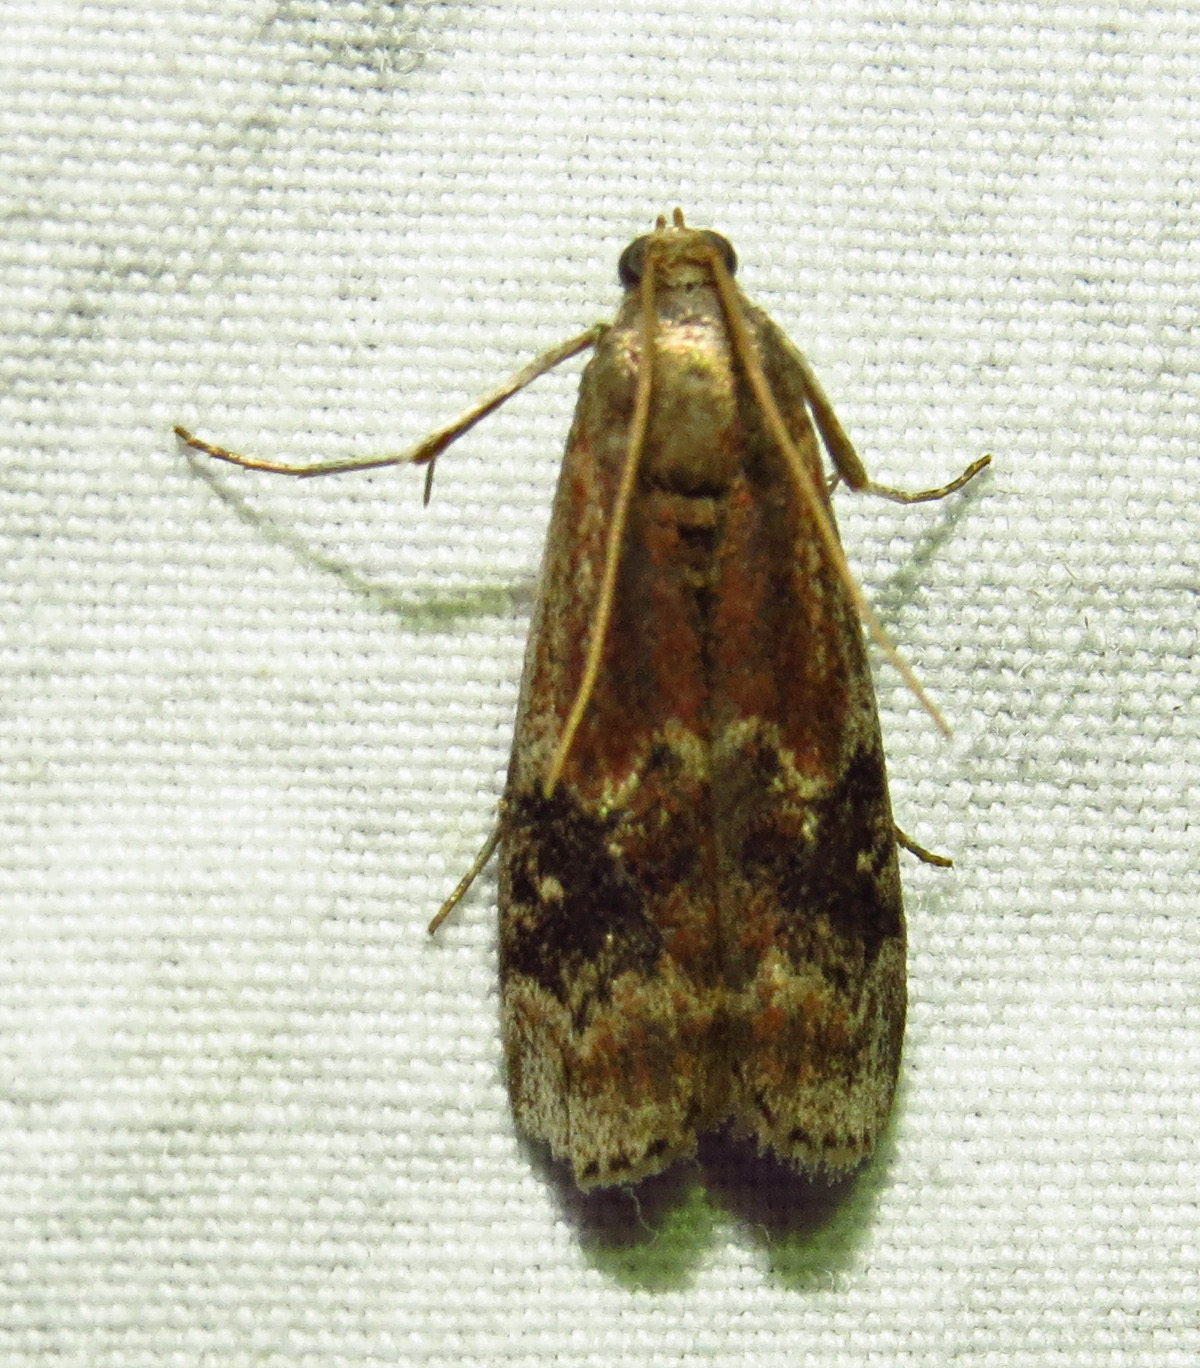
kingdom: Animalia
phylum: Arthropoda
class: Insecta
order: Lepidoptera
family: Pyralidae
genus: Euzophera
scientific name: Euzophera semifuneralis
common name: American plum borer moth
